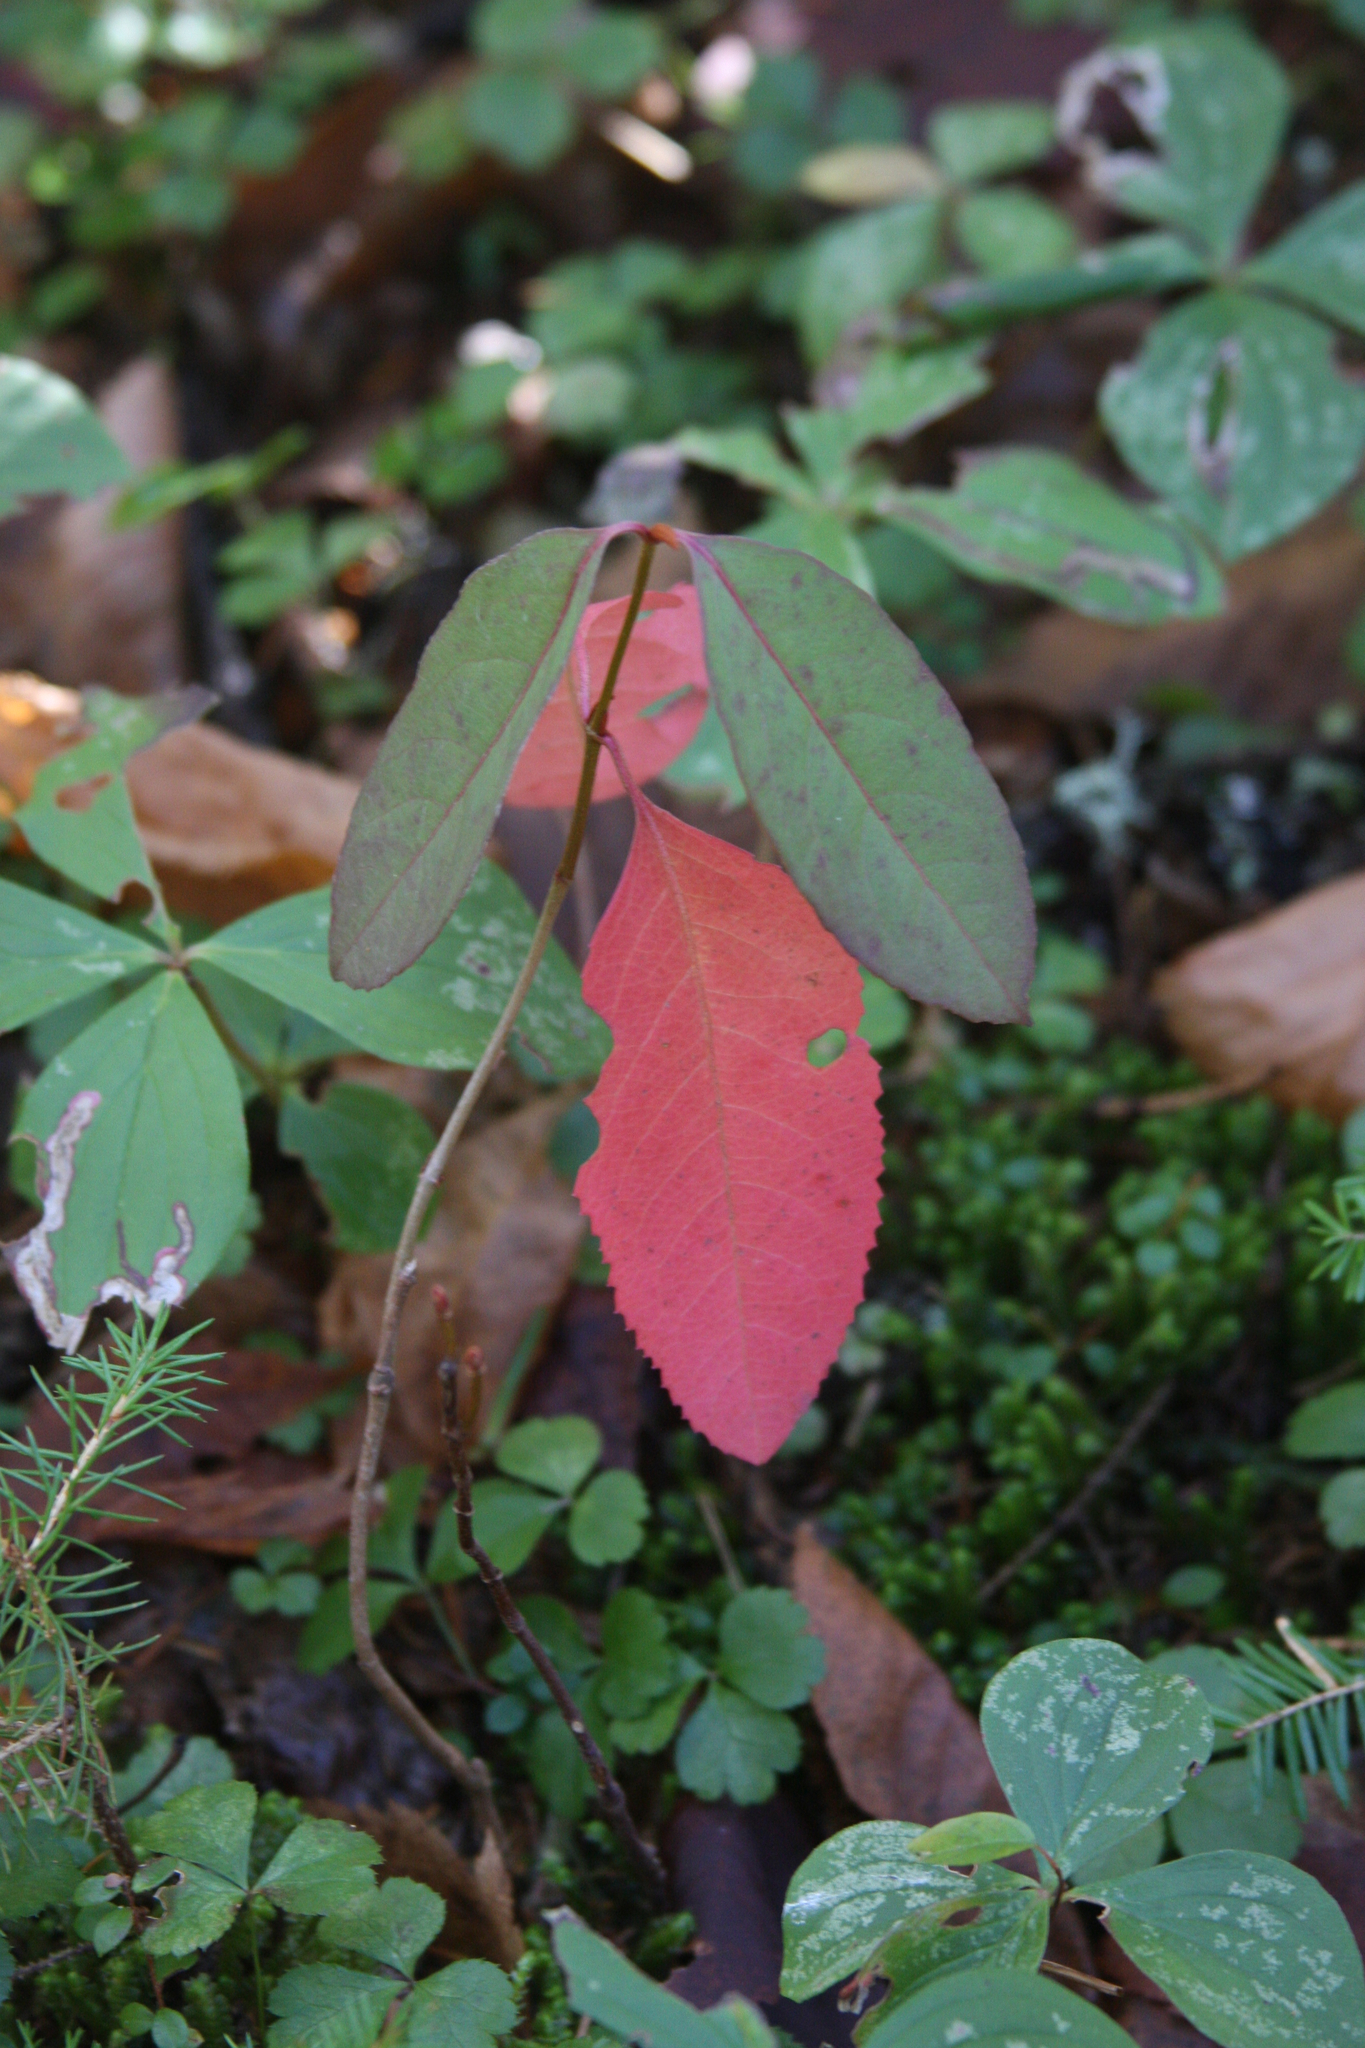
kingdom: Plantae
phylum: Tracheophyta
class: Magnoliopsida
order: Dipsacales
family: Viburnaceae
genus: Viburnum
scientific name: Viburnum cassinoides
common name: Swamp haw
